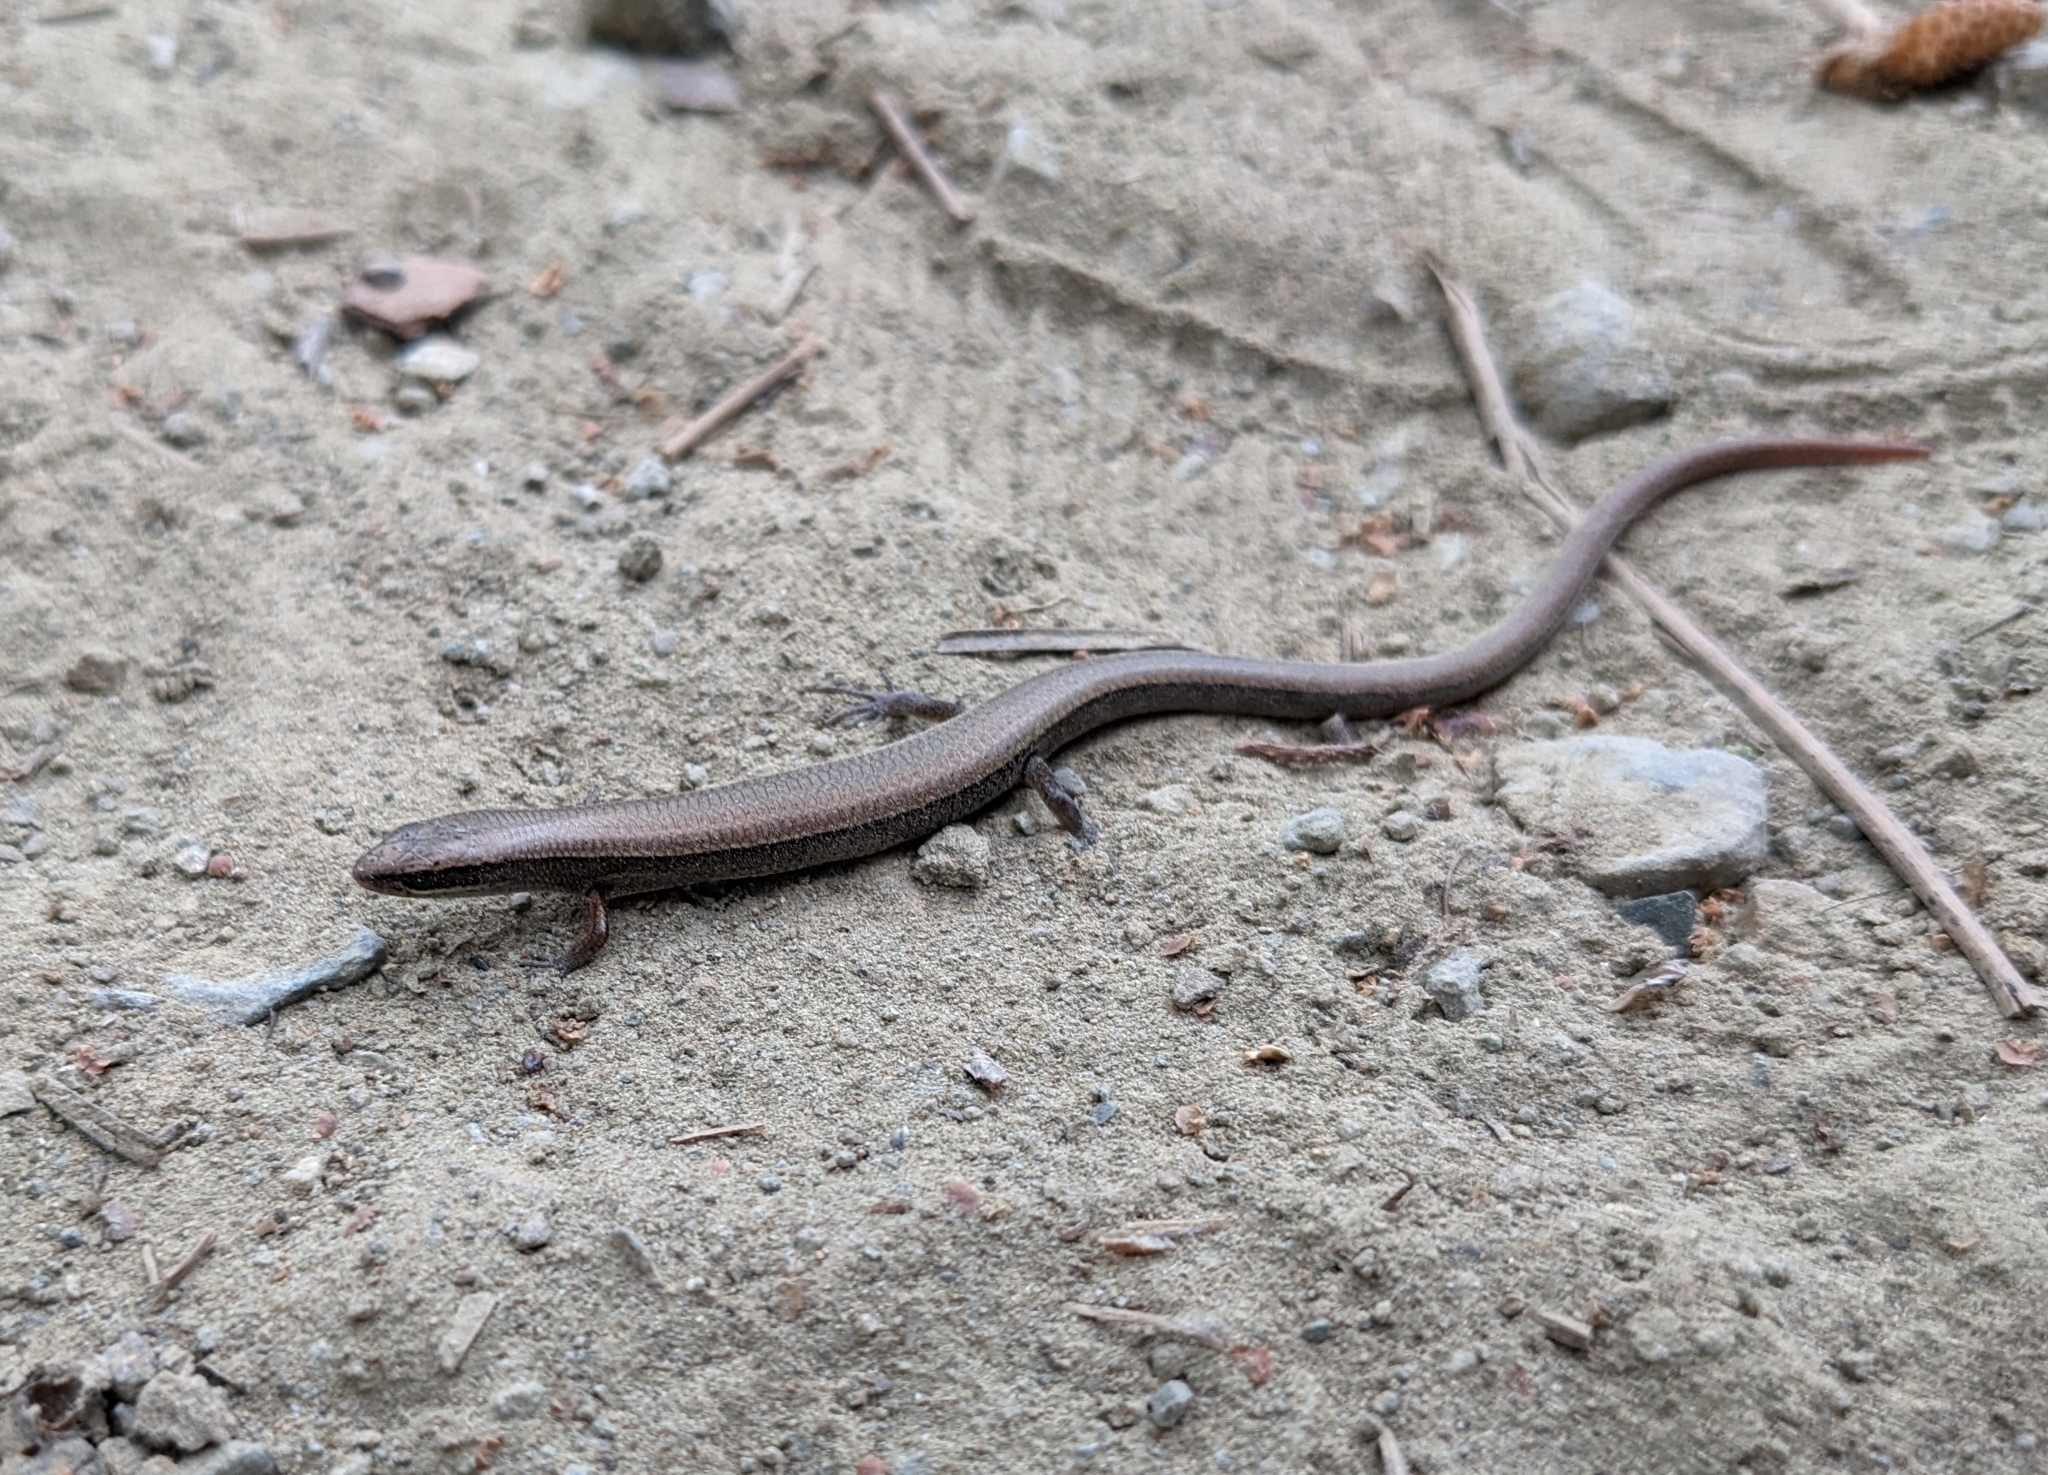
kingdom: Animalia
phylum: Chordata
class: Squamata
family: Scincidae
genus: Ablepharus
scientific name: Ablepharus budaki
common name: Budak’s snake-eyed skink
